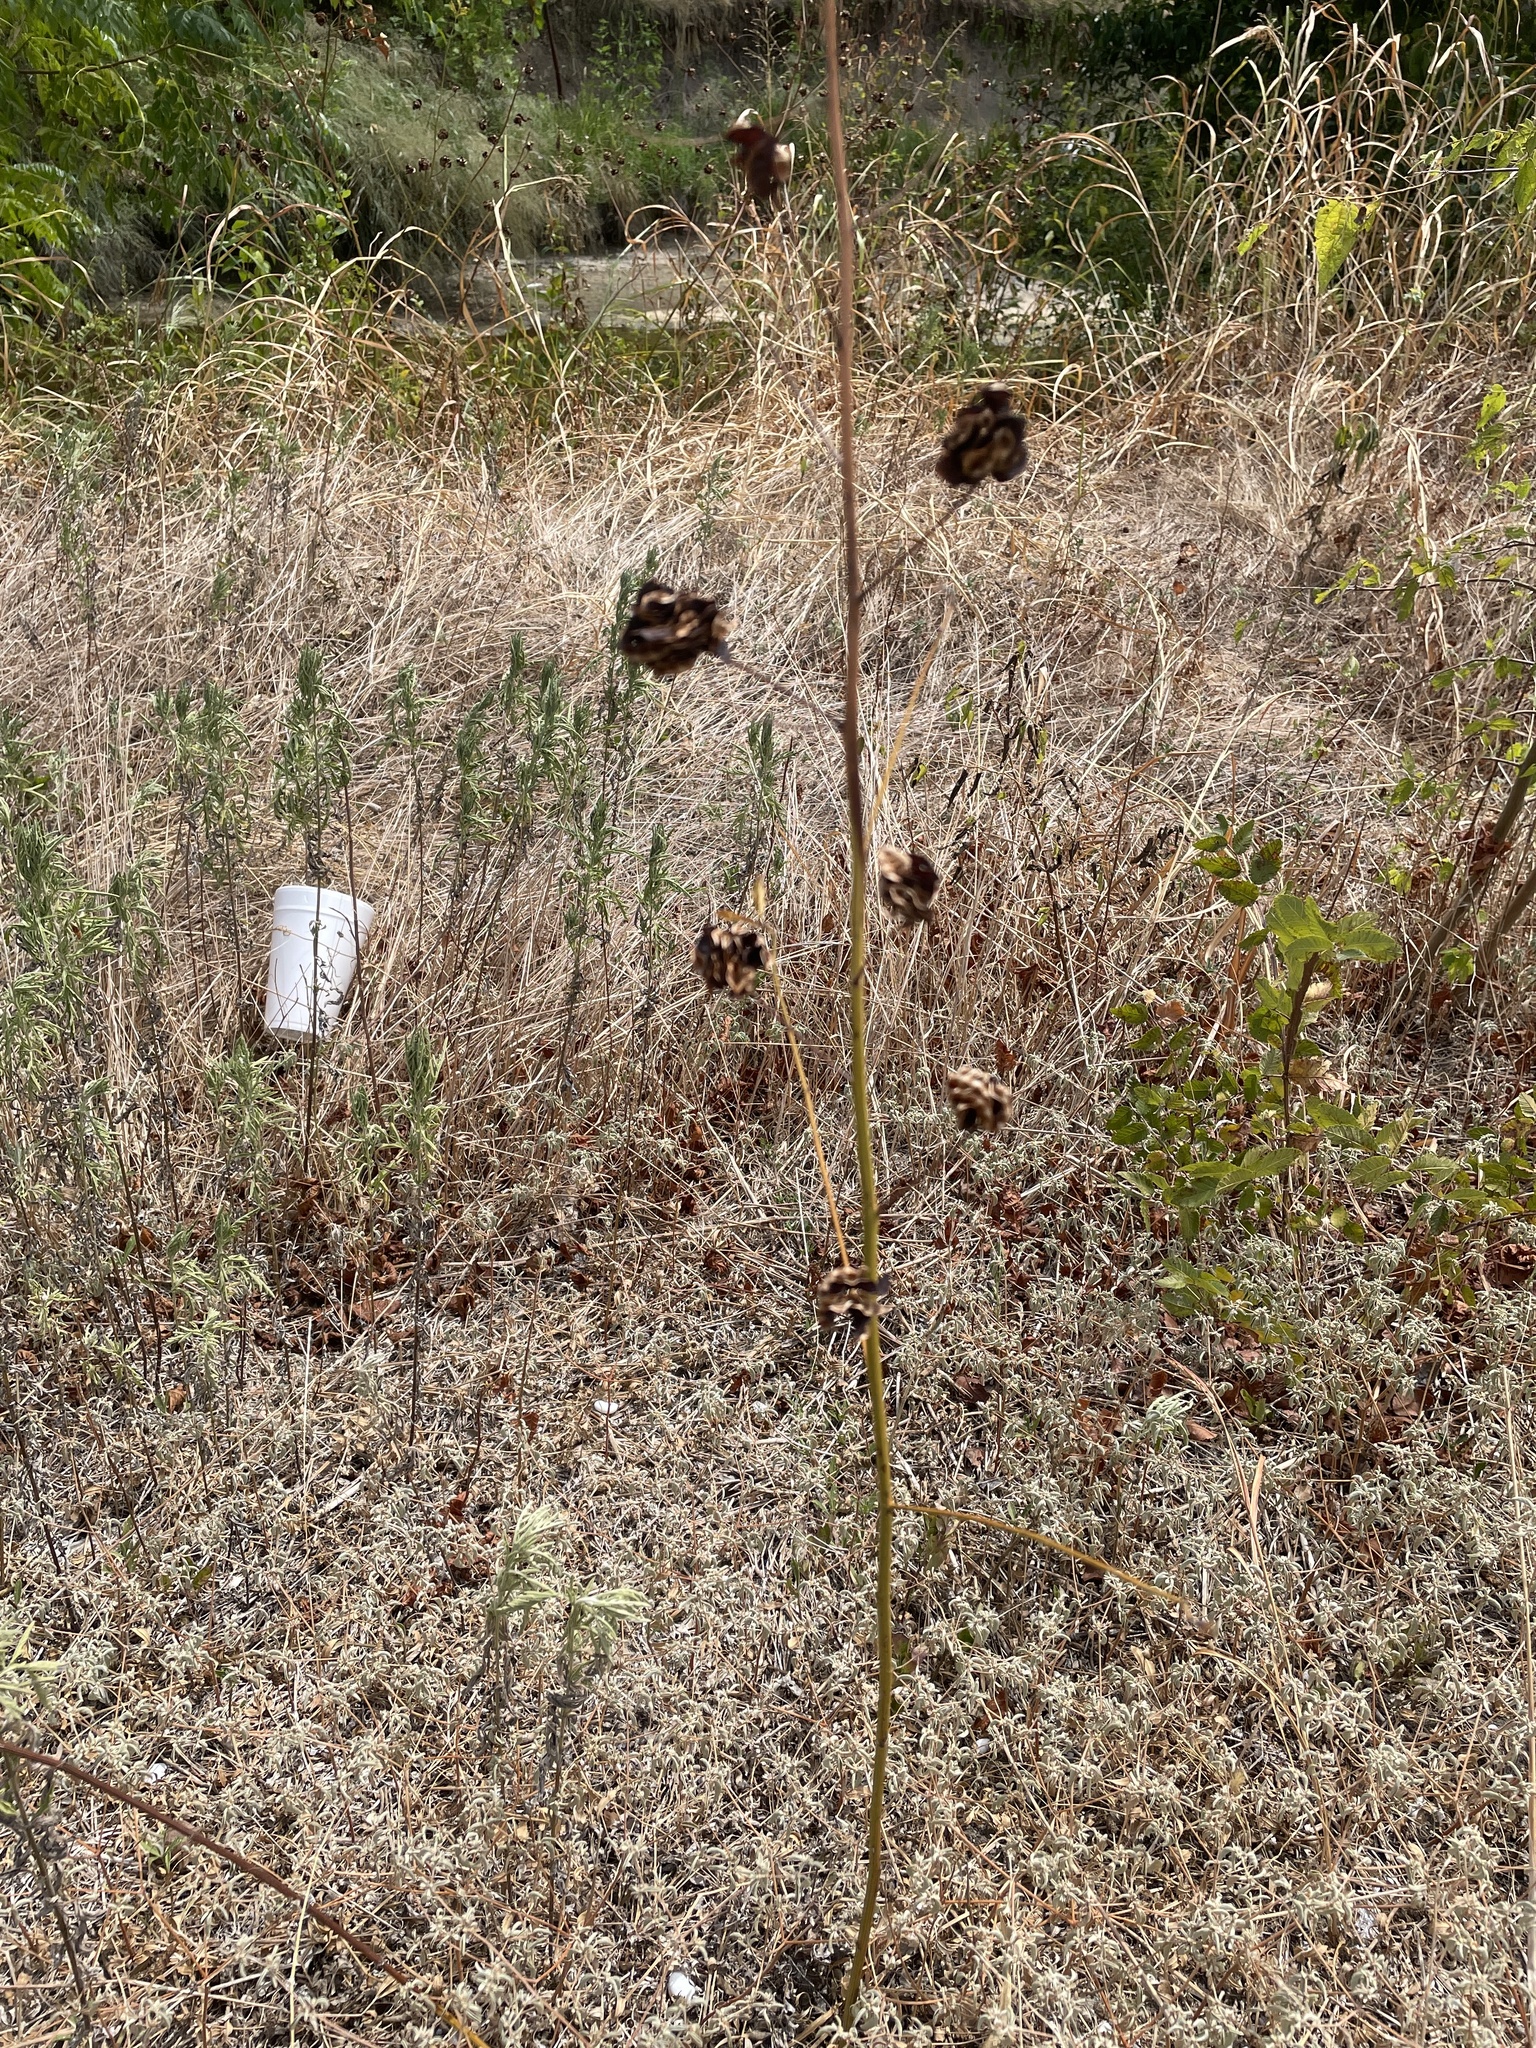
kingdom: Plantae
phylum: Tracheophyta
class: Magnoliopsida
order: Fabales
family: Fabaceae
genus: Desmanthus
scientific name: Desmanthus illinoensis
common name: Illinois bundle-flower
